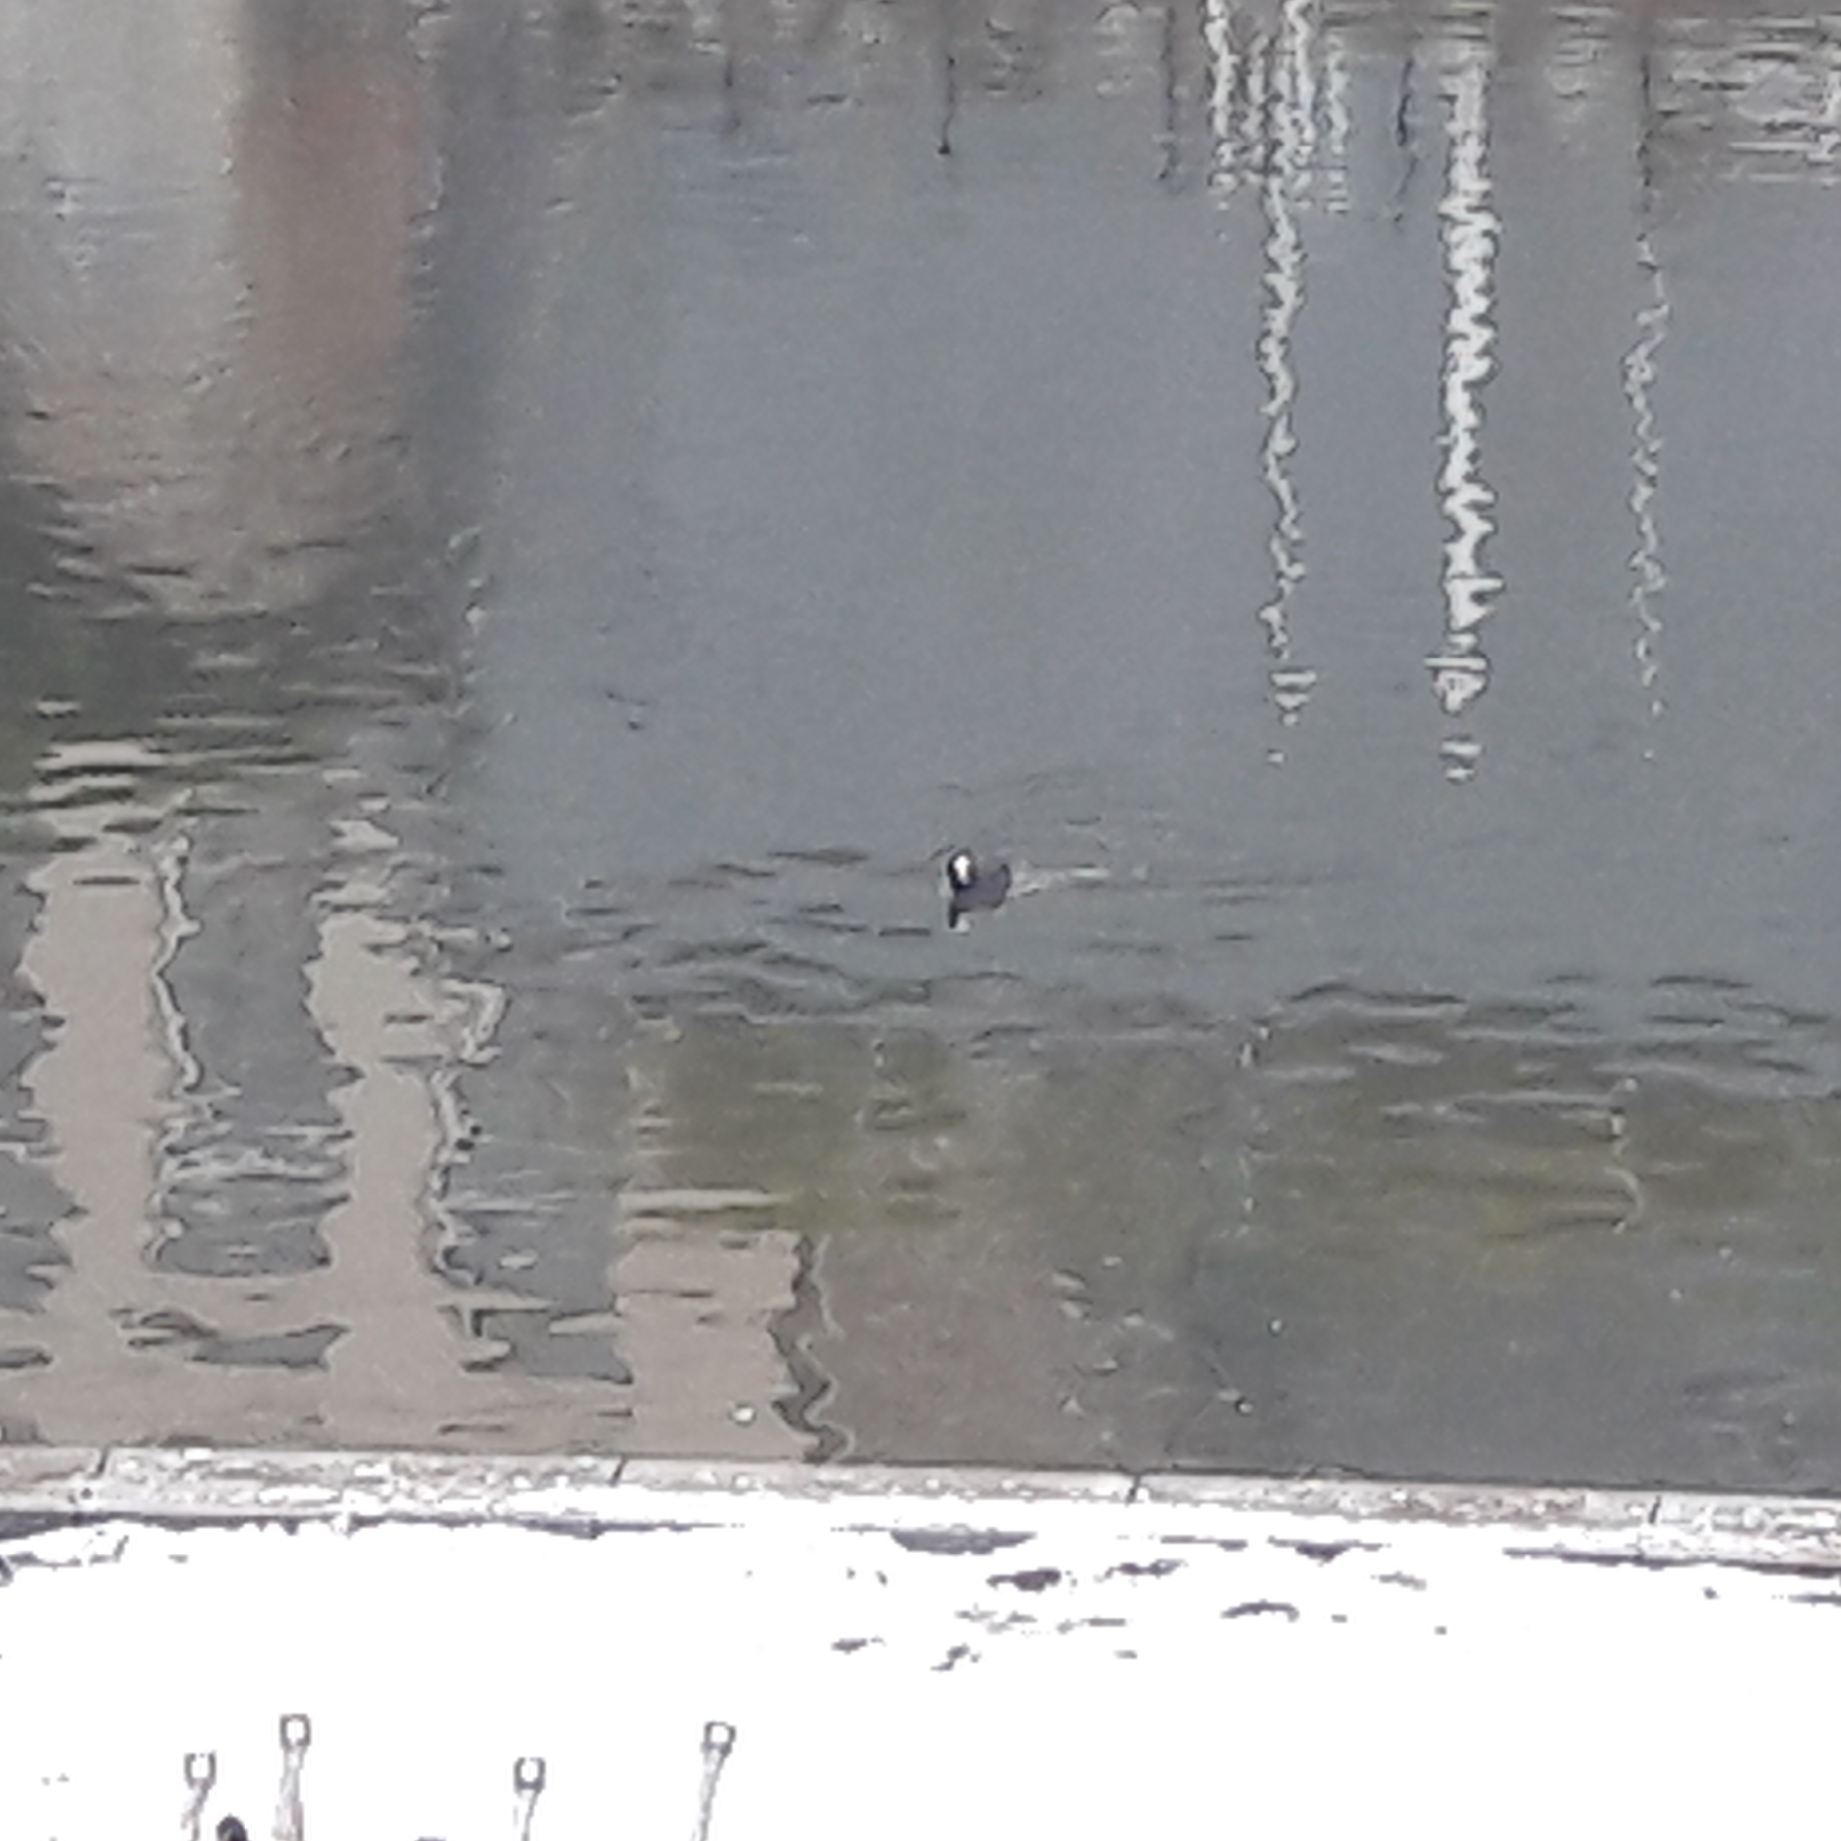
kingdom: Animalia
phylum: Chordata
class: Aves
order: Gruiformes
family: Rallidae
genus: Fulica
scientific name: Fulica atra
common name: Eurasian coot
